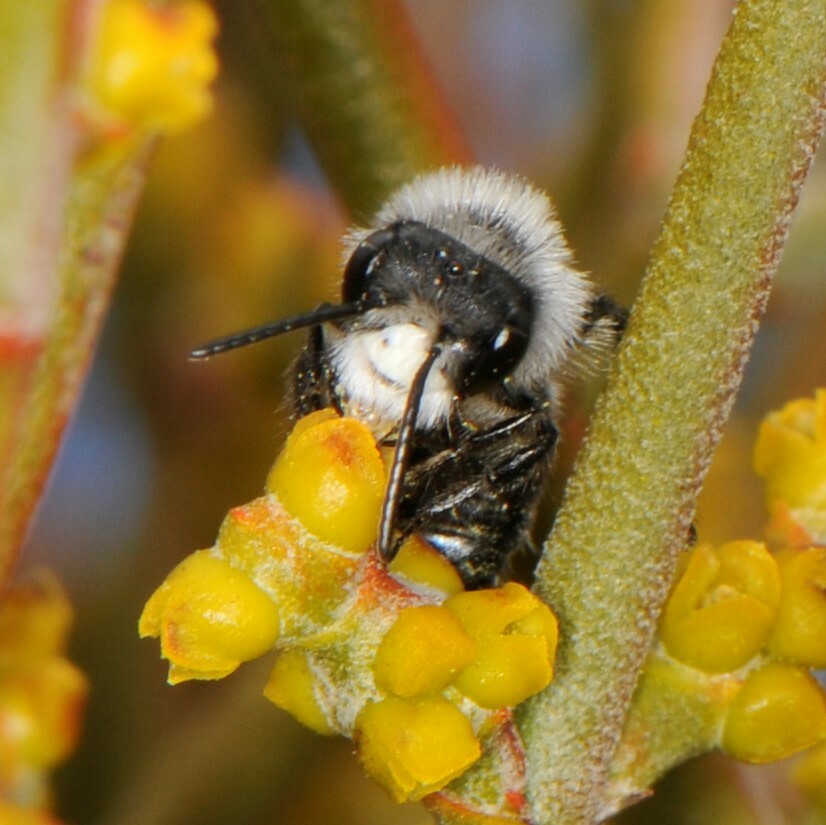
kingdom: Animalia
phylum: Arthropoda
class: Insecta
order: Hymenoptera
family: Andrenidae
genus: Andrena
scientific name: Andrena
